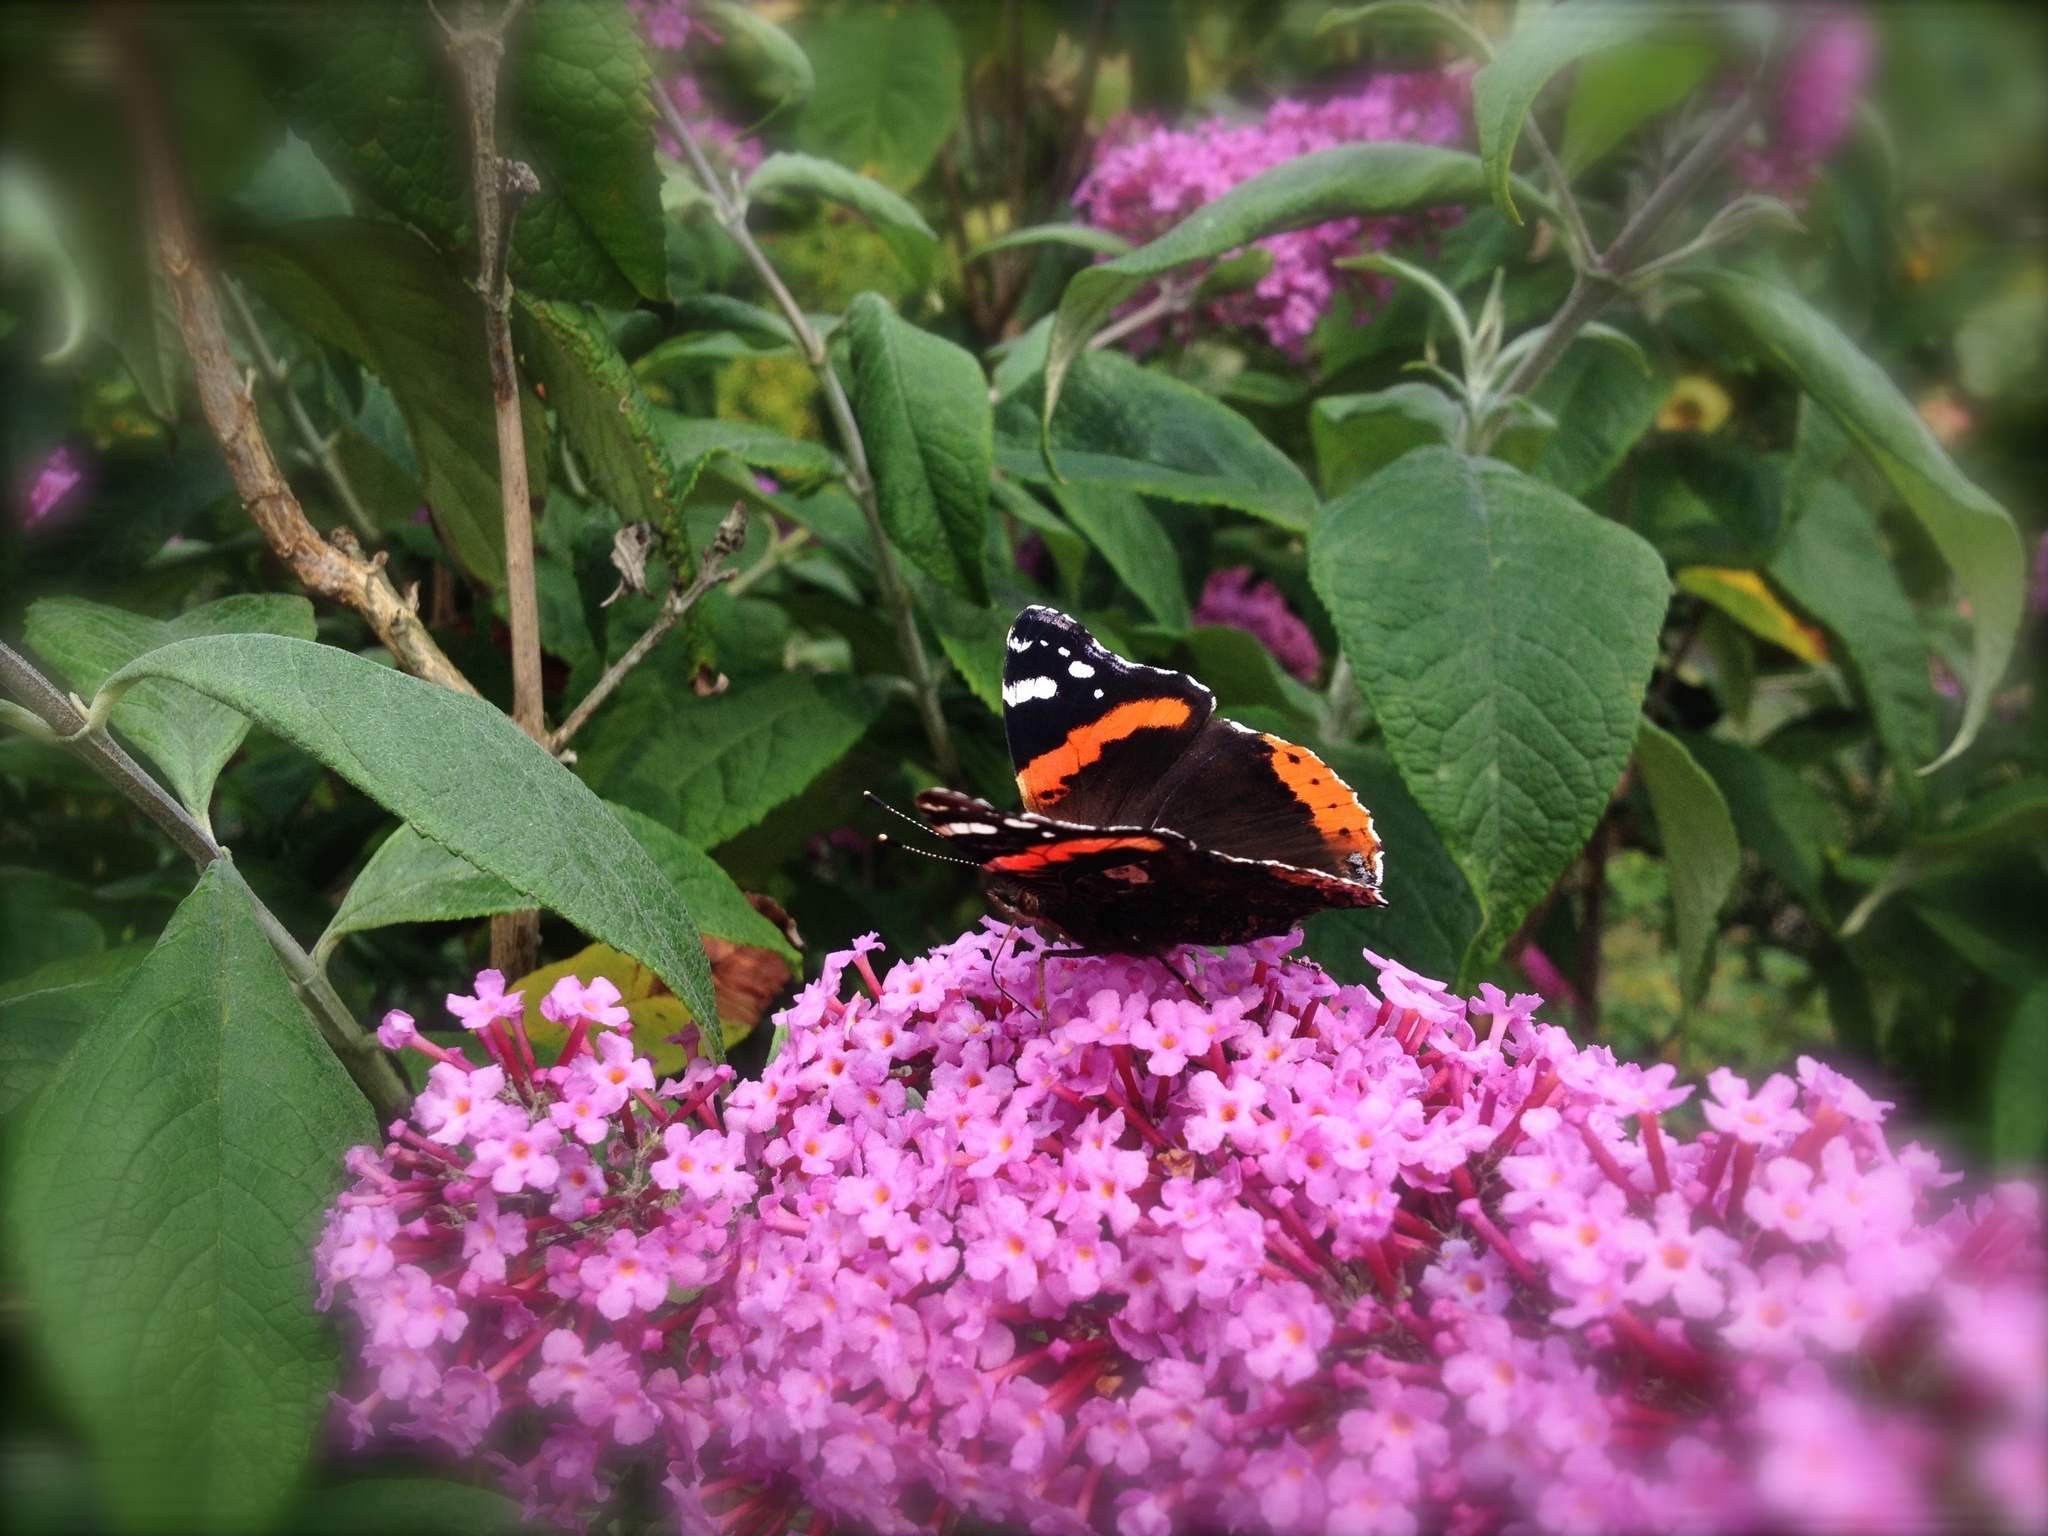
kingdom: Animalia
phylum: Arthropoda
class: Insecta
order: Lepidoptera
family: Nymphalidae
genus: Vanessa
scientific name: Vanessa atalanta
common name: Red admiral
